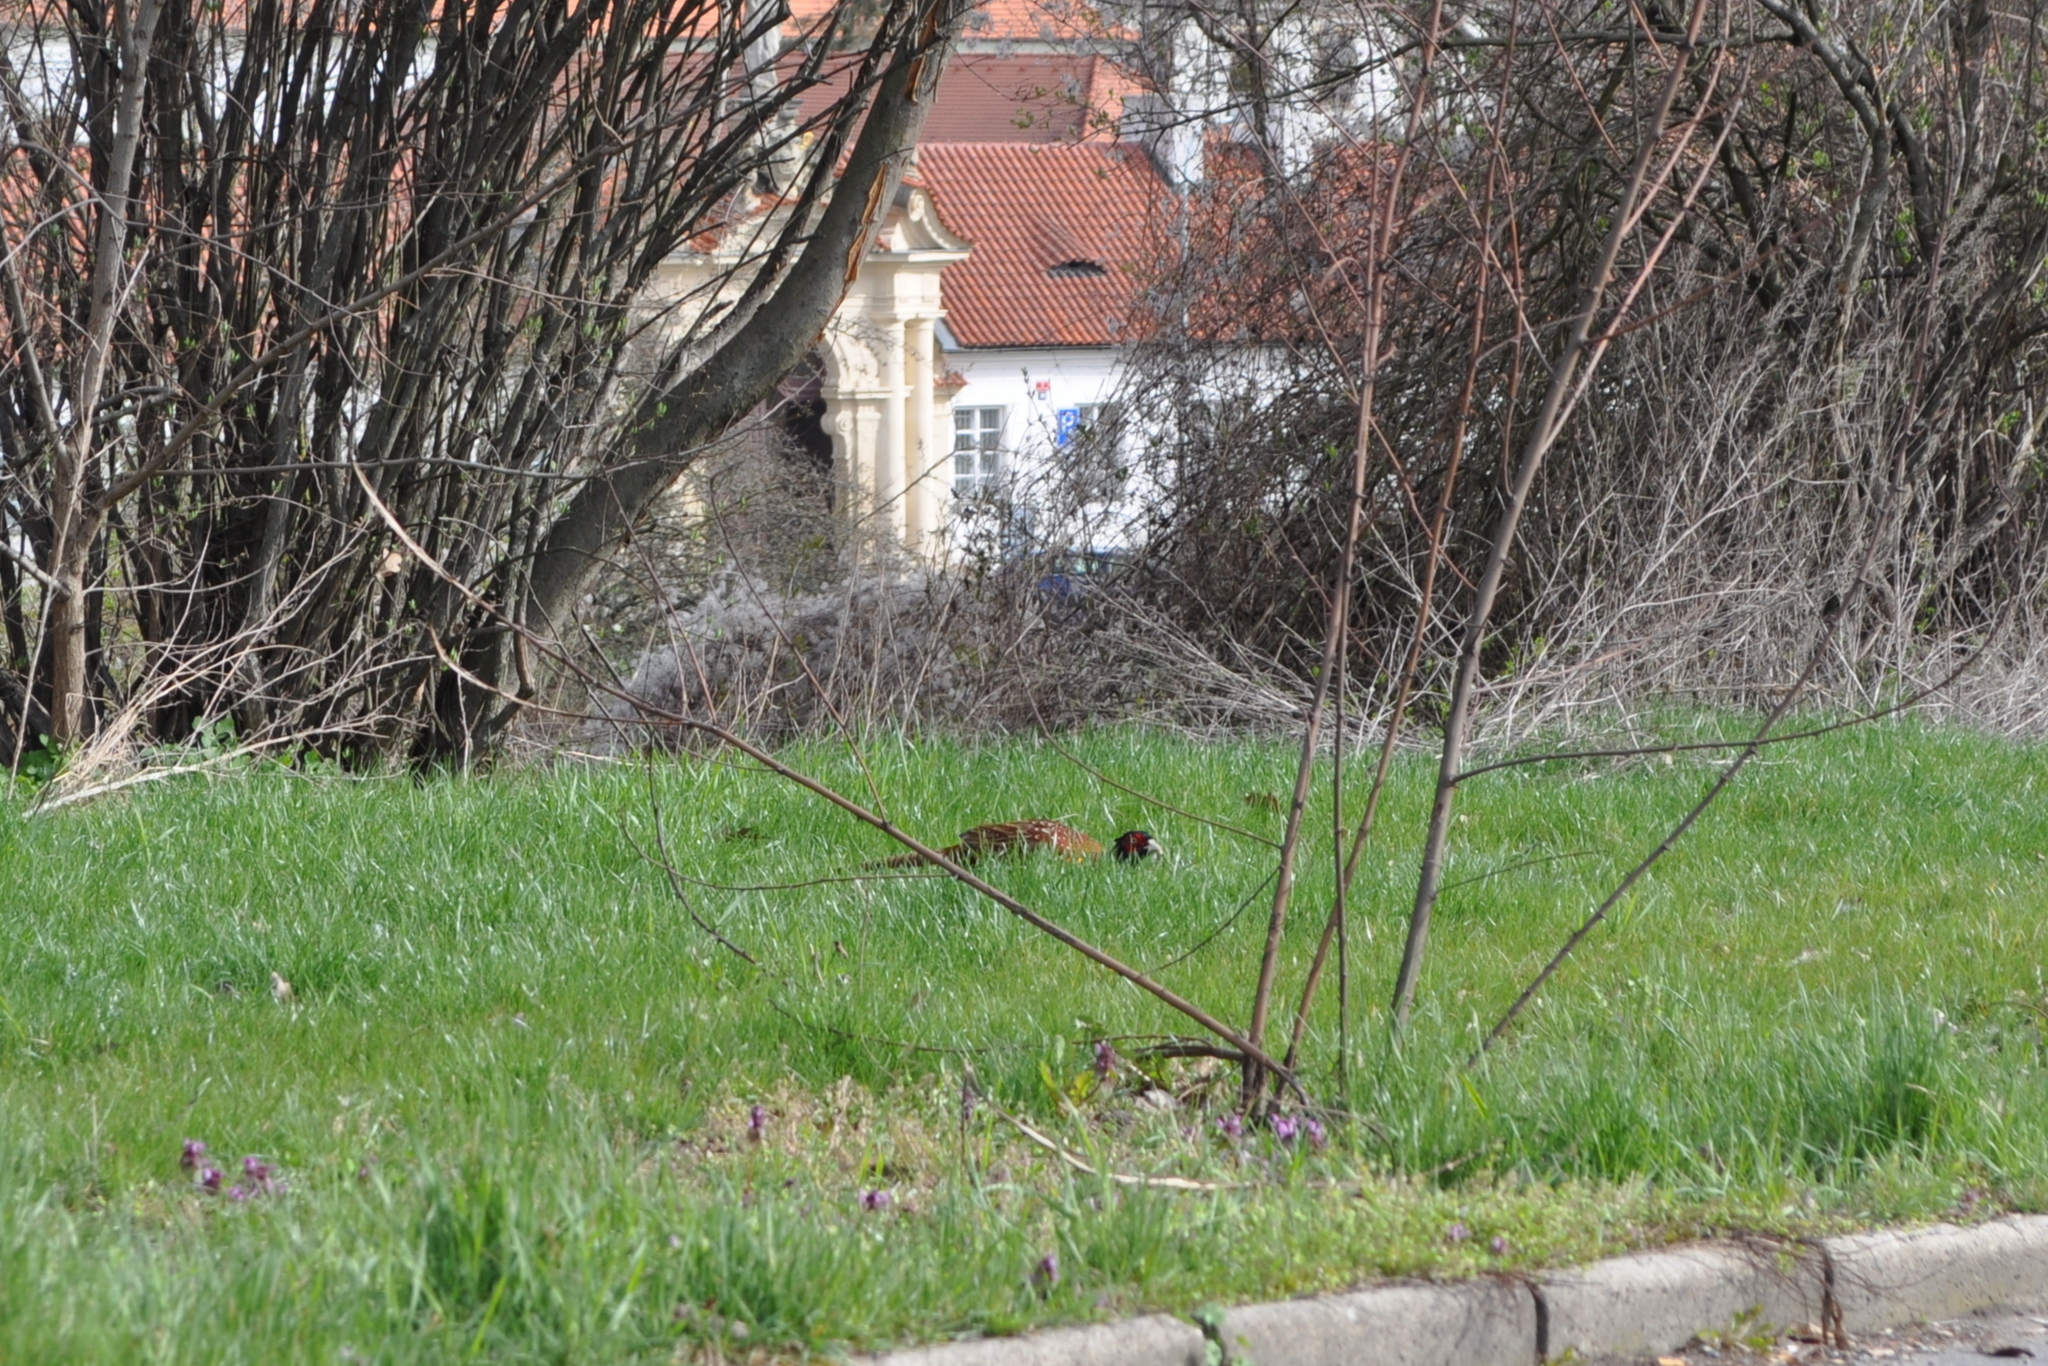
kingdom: Animalia
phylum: Chordata
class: Aves
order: Galliformes
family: Phasianidae
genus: Phasianus
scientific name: Phasianus colchicus
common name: Common pheasant
